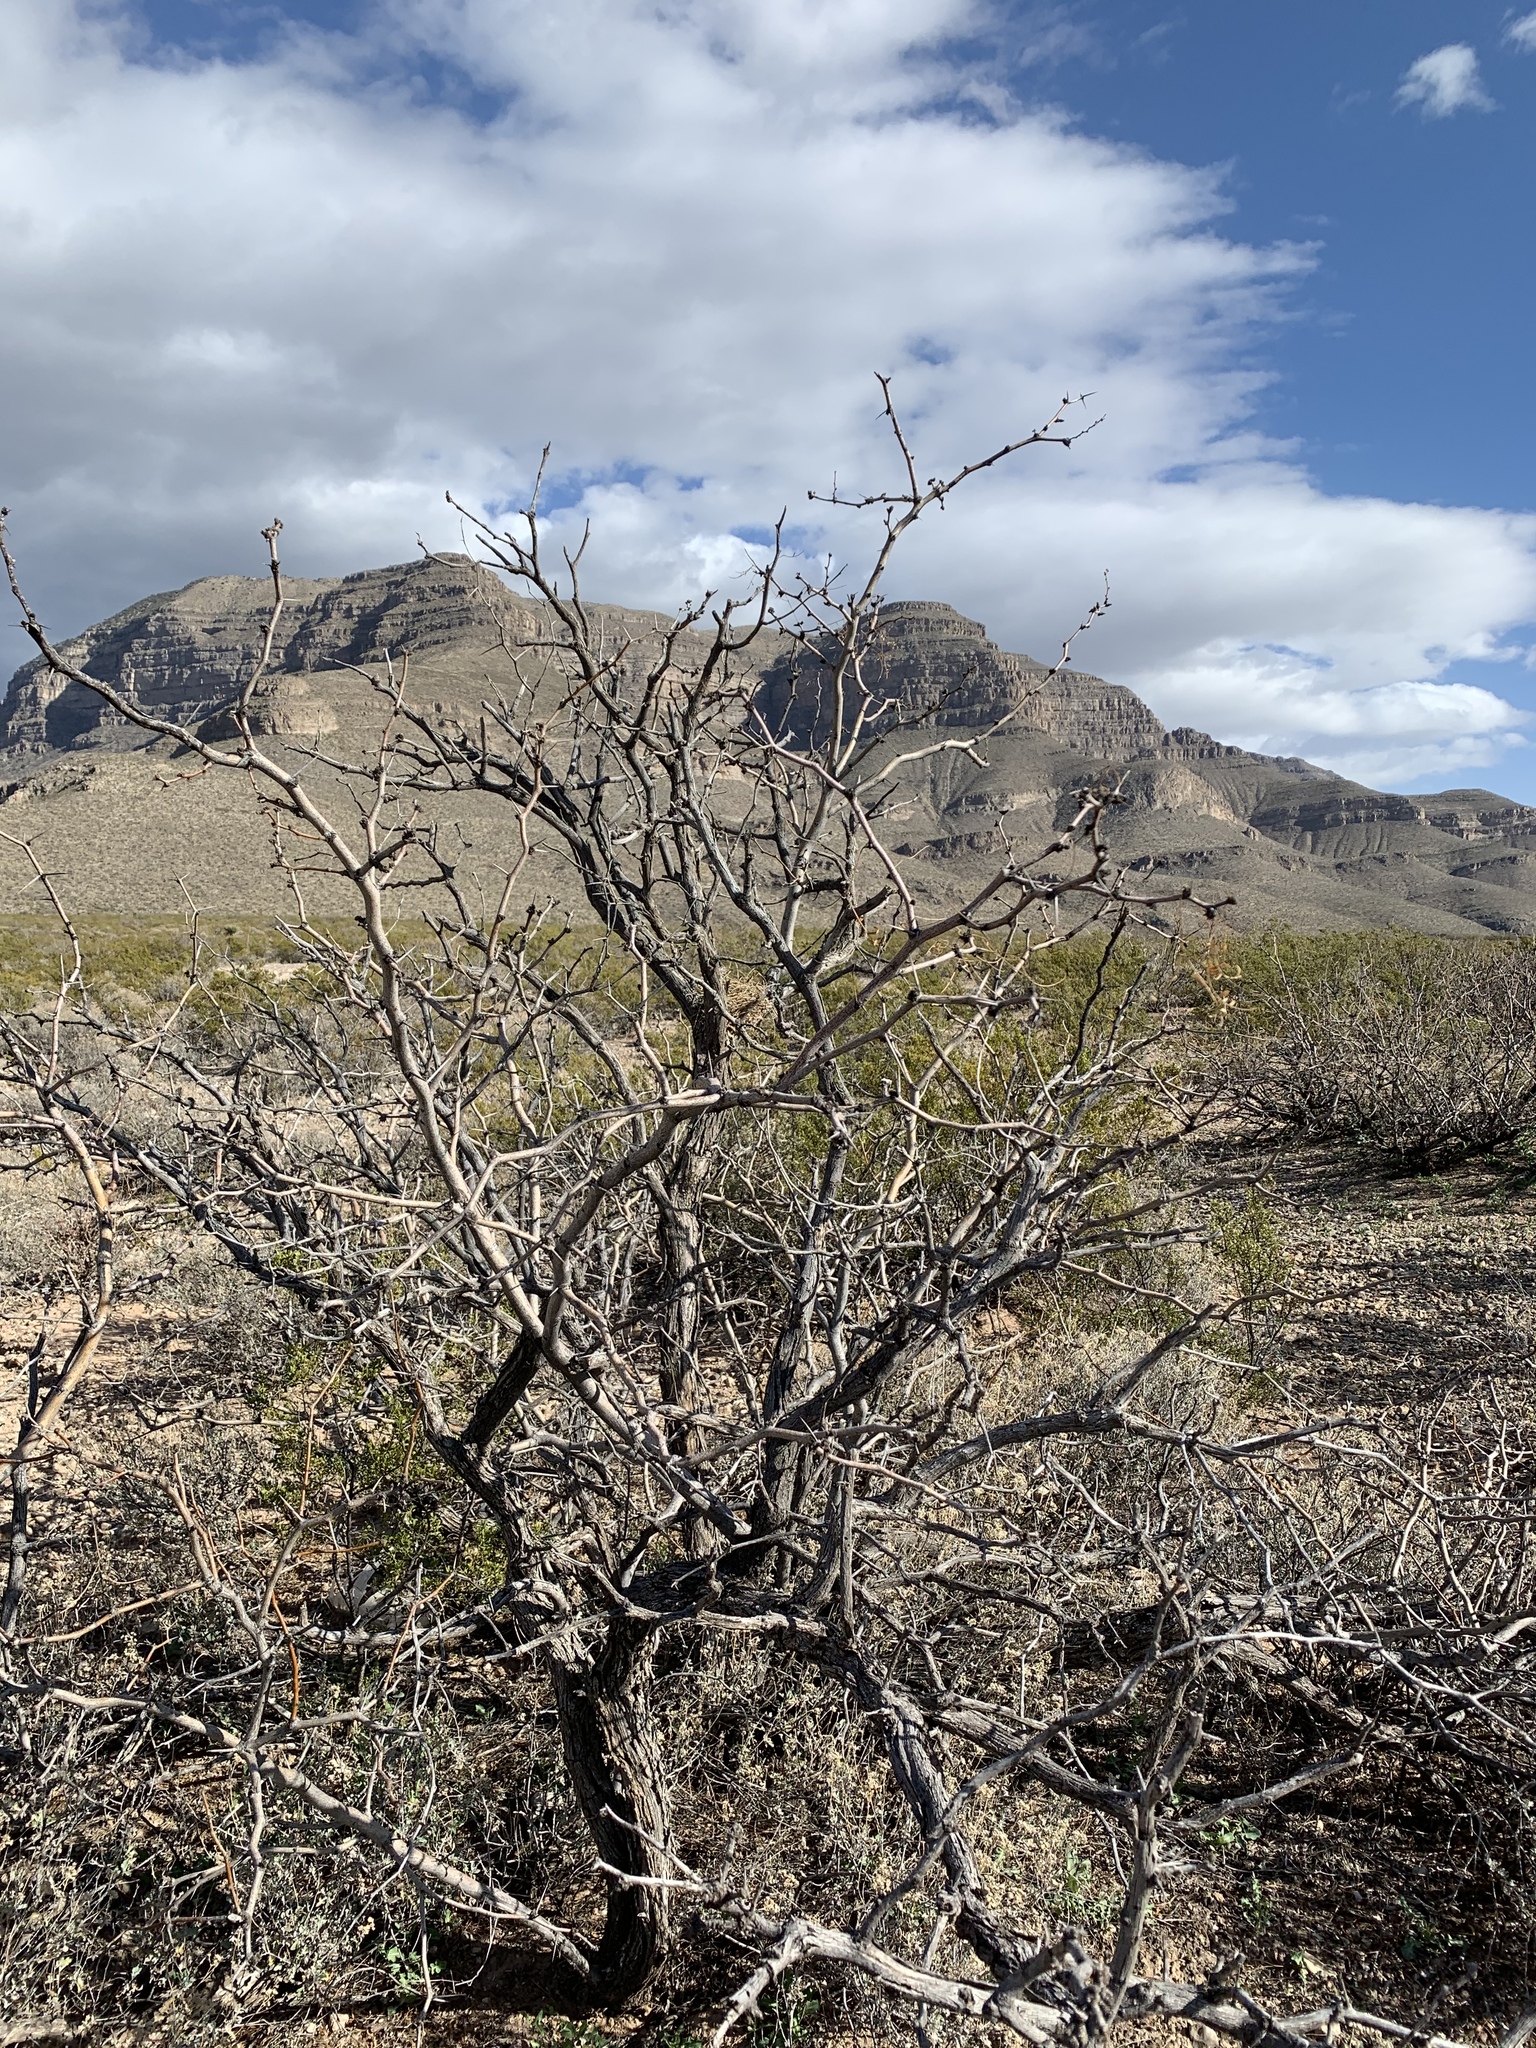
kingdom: Plantae
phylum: Tracheophyta
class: Magnoliopsida
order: Fabales
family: Fabaceae
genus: Prosopis
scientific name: Prosopis glandulosa
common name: Honey mesquite
